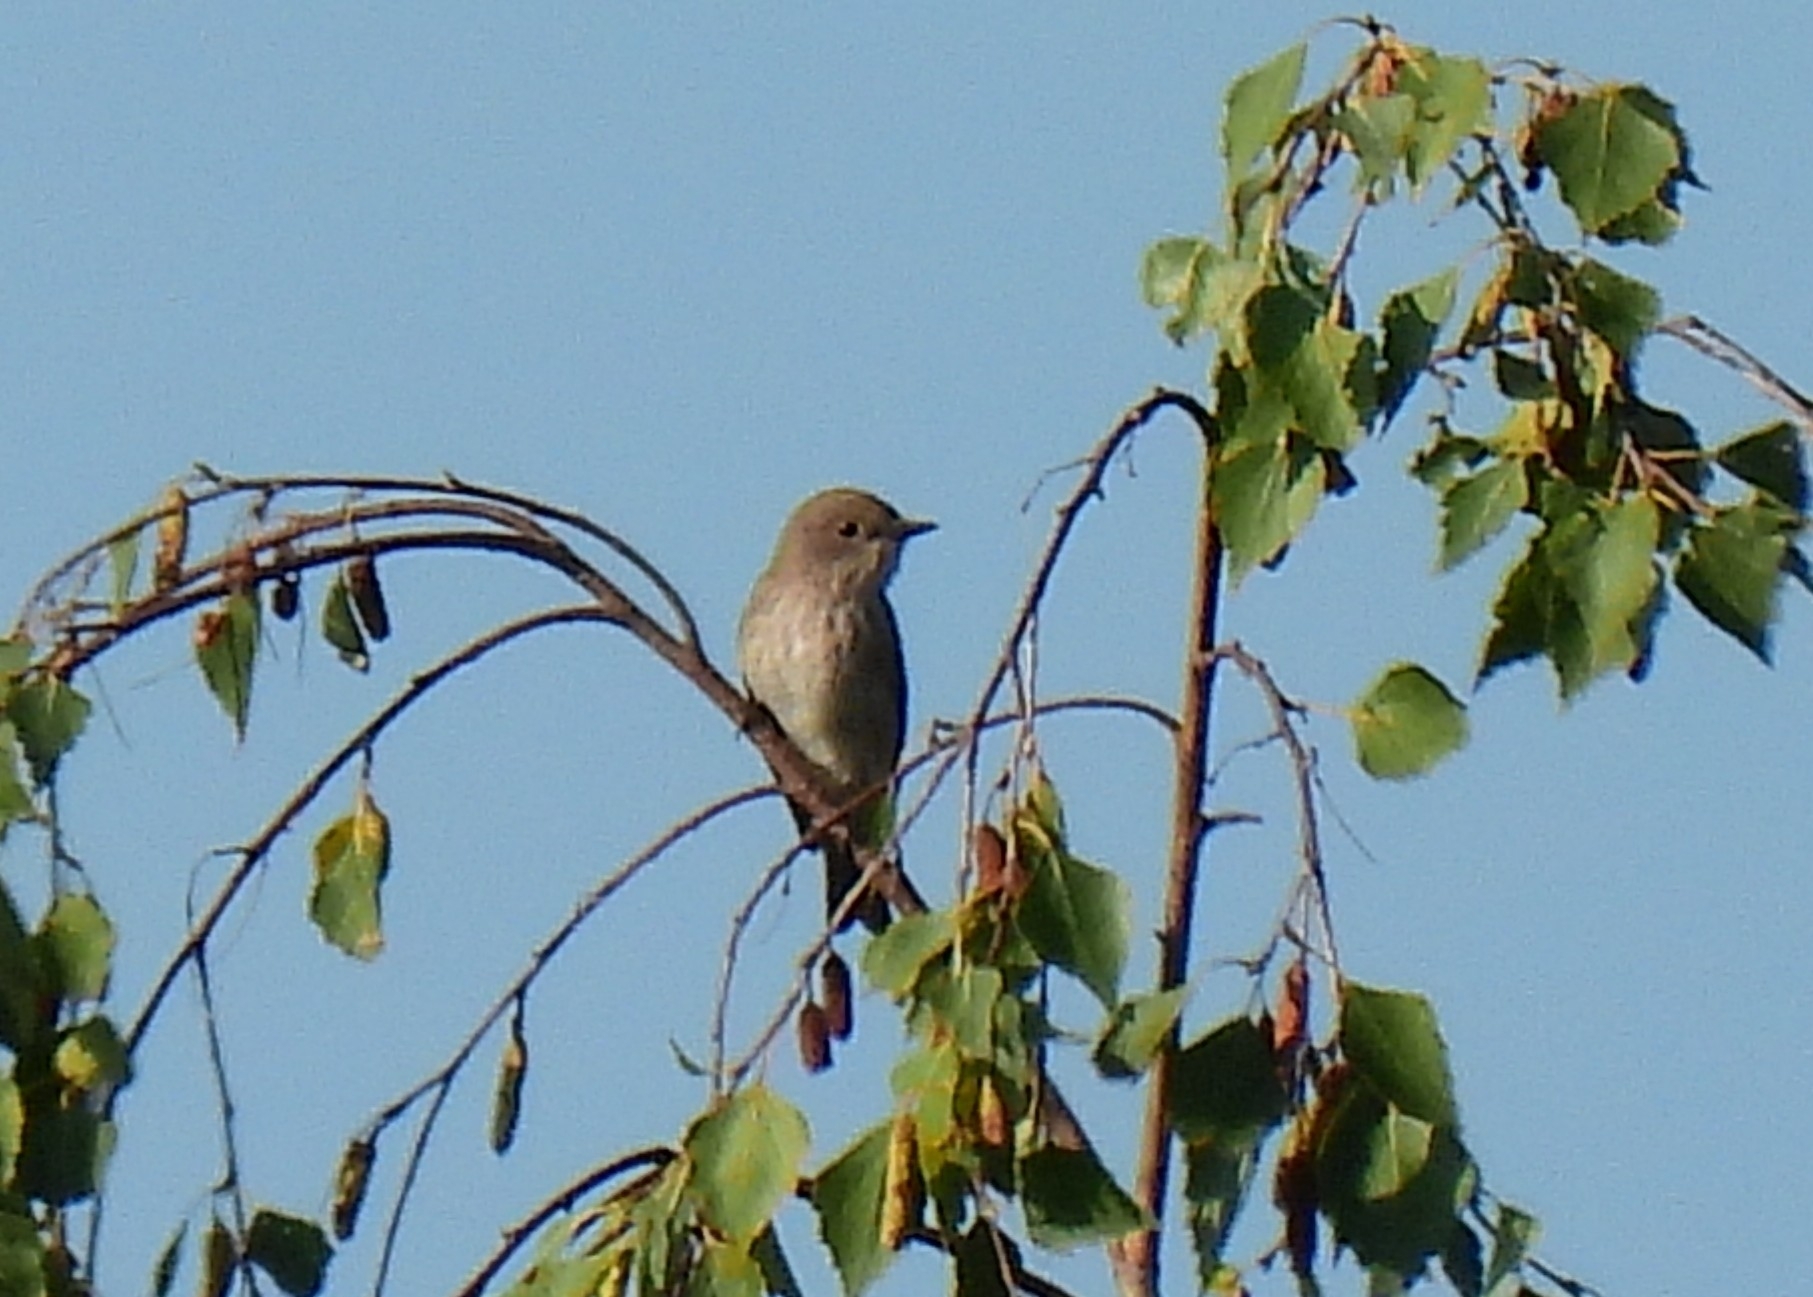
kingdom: Animalia
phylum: Chordata
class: Aves
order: Passeriformes
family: Muscicapidae
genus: Muscicapa
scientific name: Muscicapa striata
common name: Spotted flycatcher
